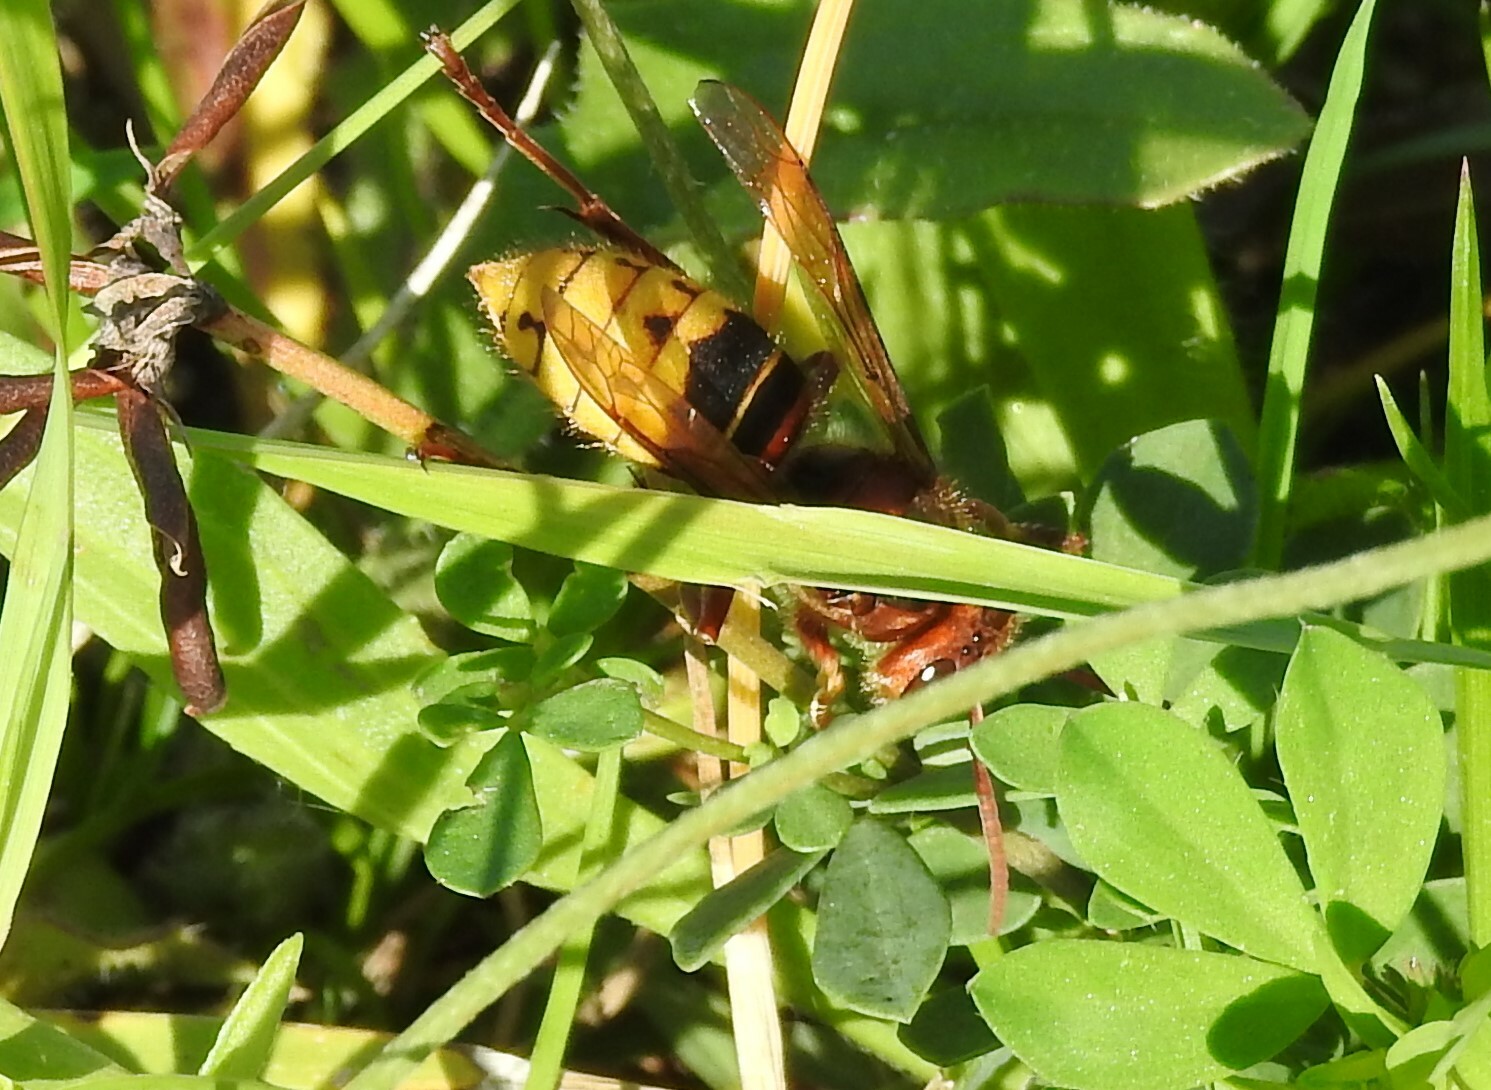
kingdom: Animalia
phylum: Arthropoda
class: Insecta
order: Hymenoptera
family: Vespidae
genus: Vespa
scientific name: Vespa crabro
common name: Hornet
